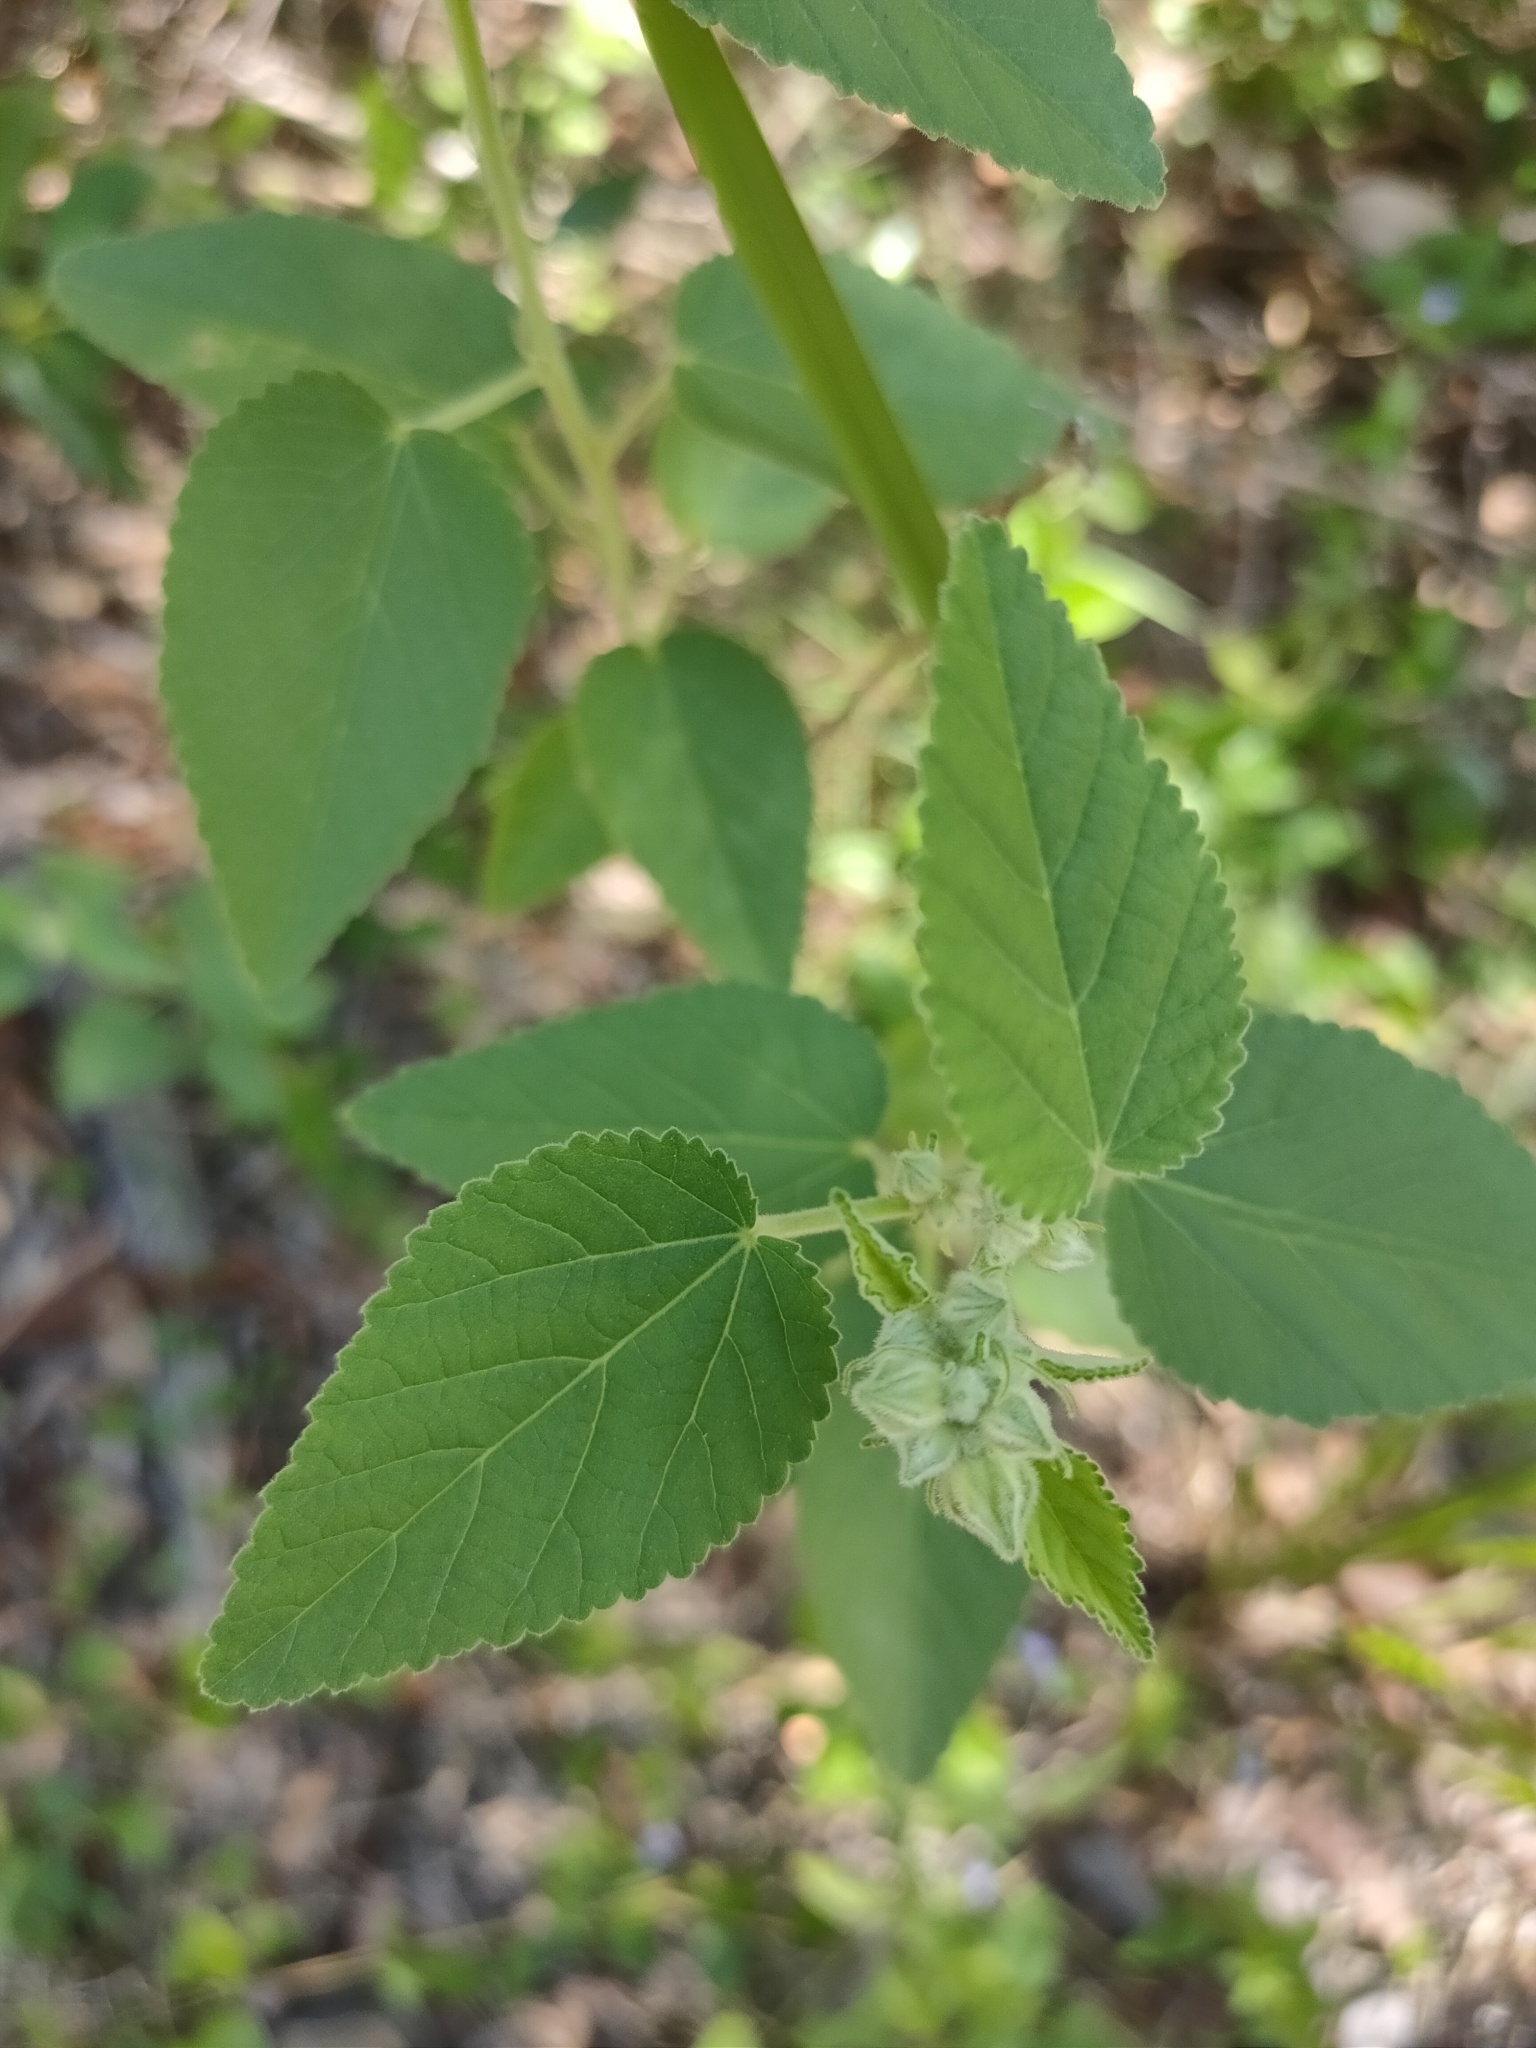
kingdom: Plantae
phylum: Tracheophyta
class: Magnoliopsida
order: Malvales
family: Malvaceae
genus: Sida
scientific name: Sida cordifolia
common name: Ilima
